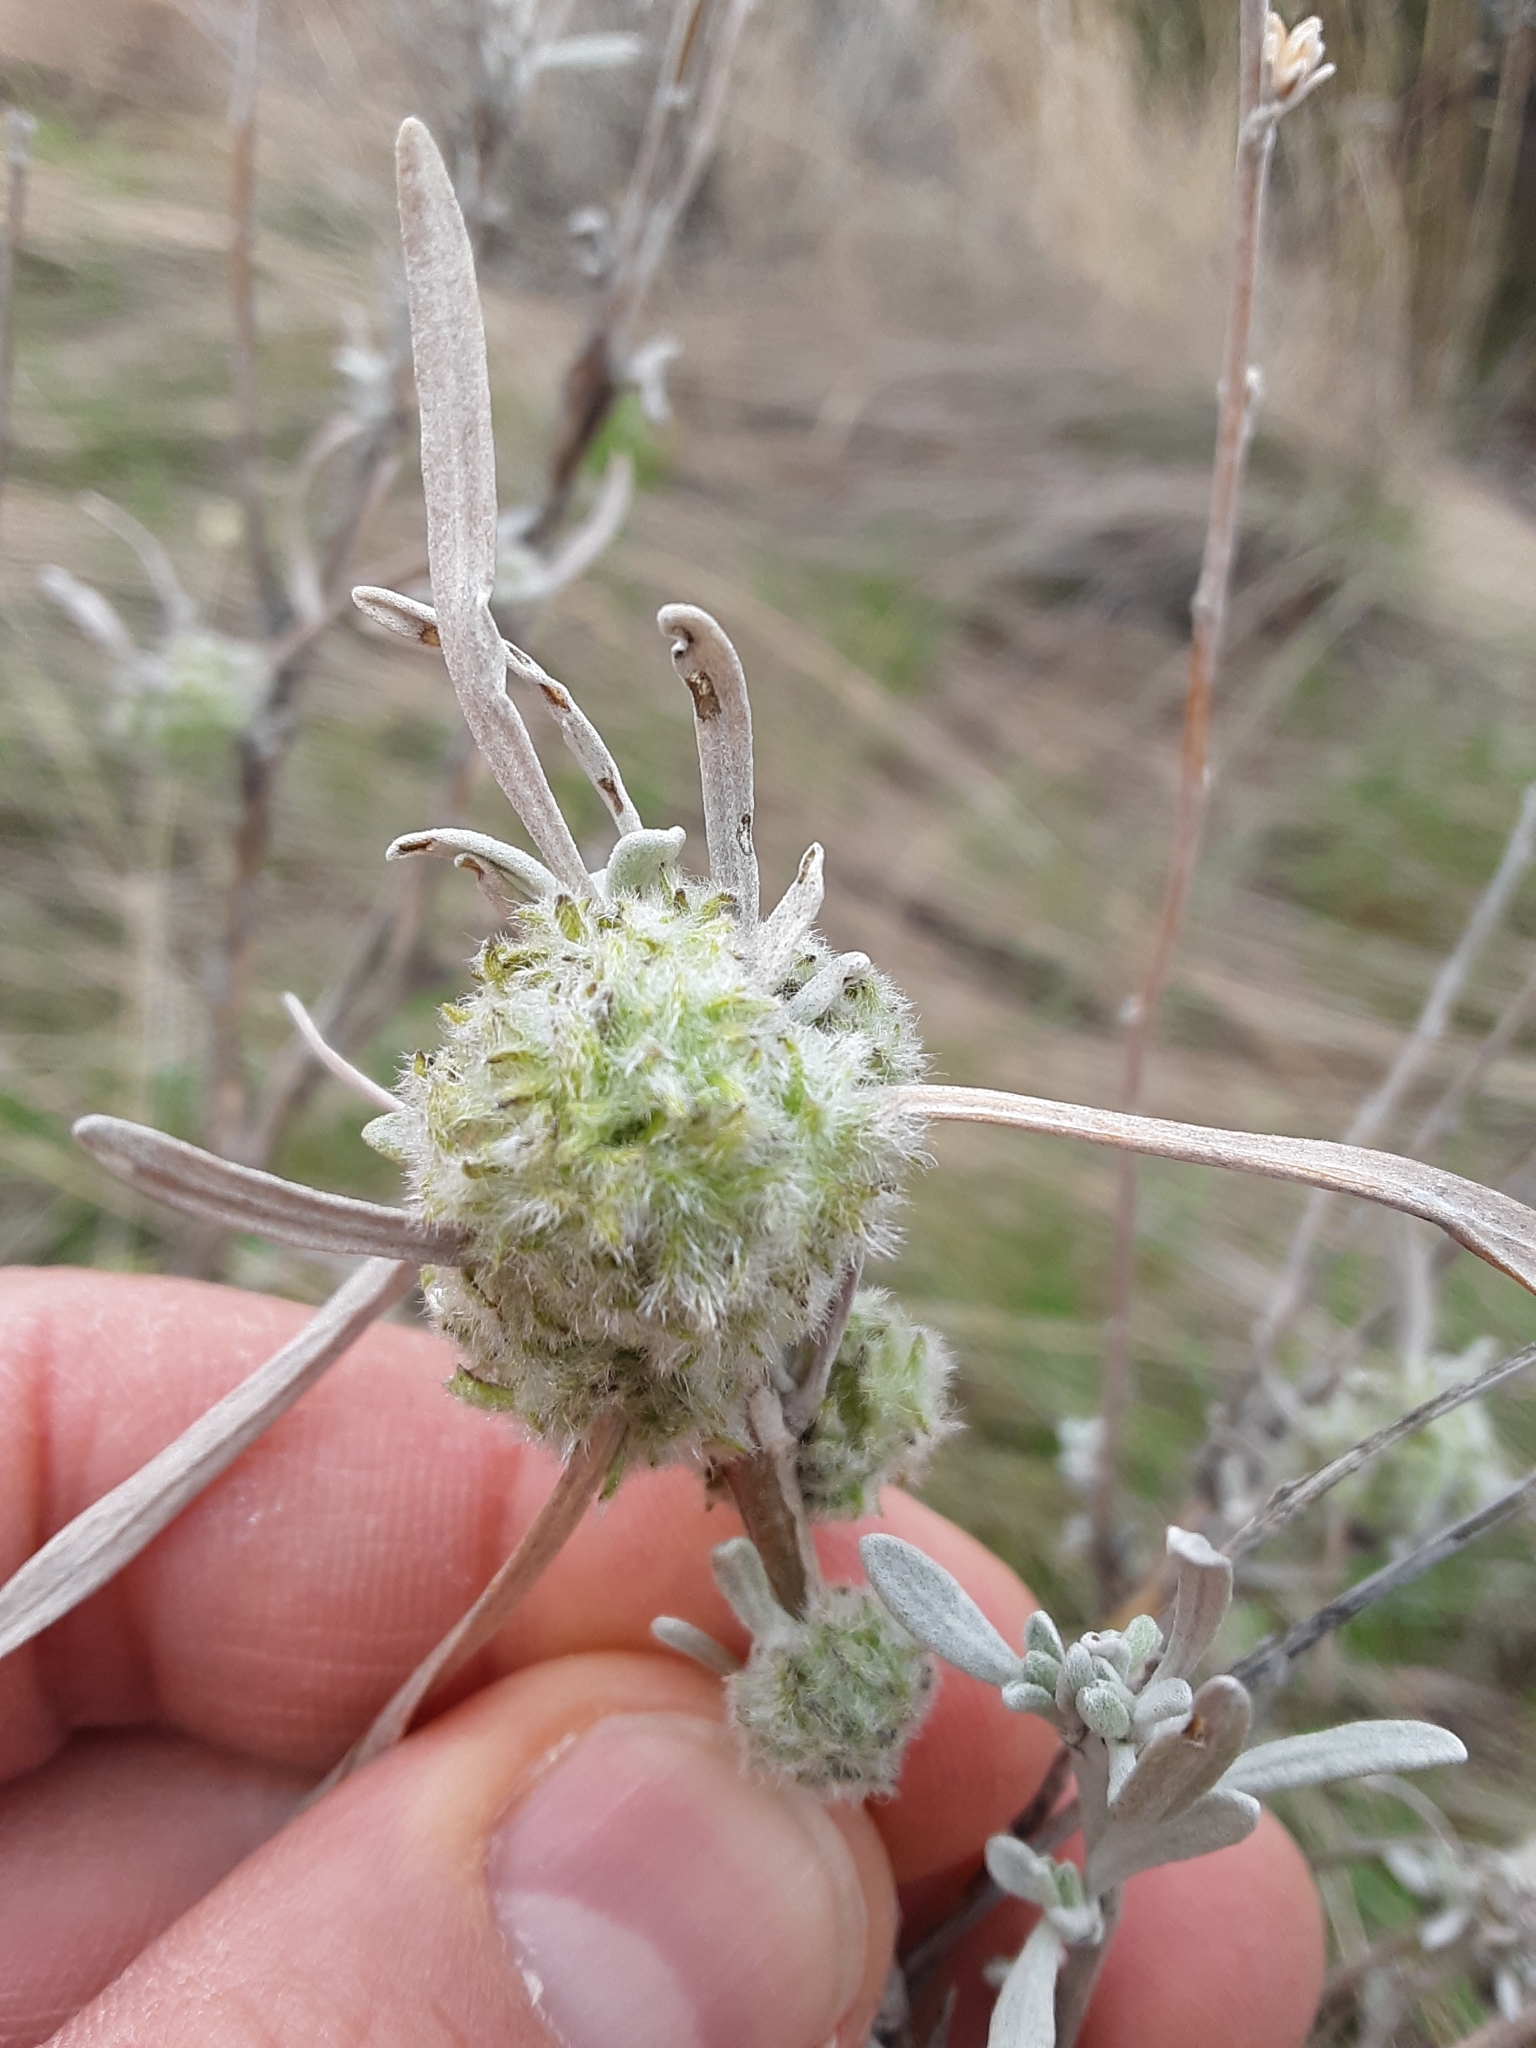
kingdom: Animalia
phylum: Arthropoda
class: Insecta
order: Diptera
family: Cecidomyiidae
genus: Rhopalomyia
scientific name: Rhopalomyia medusirrasa
